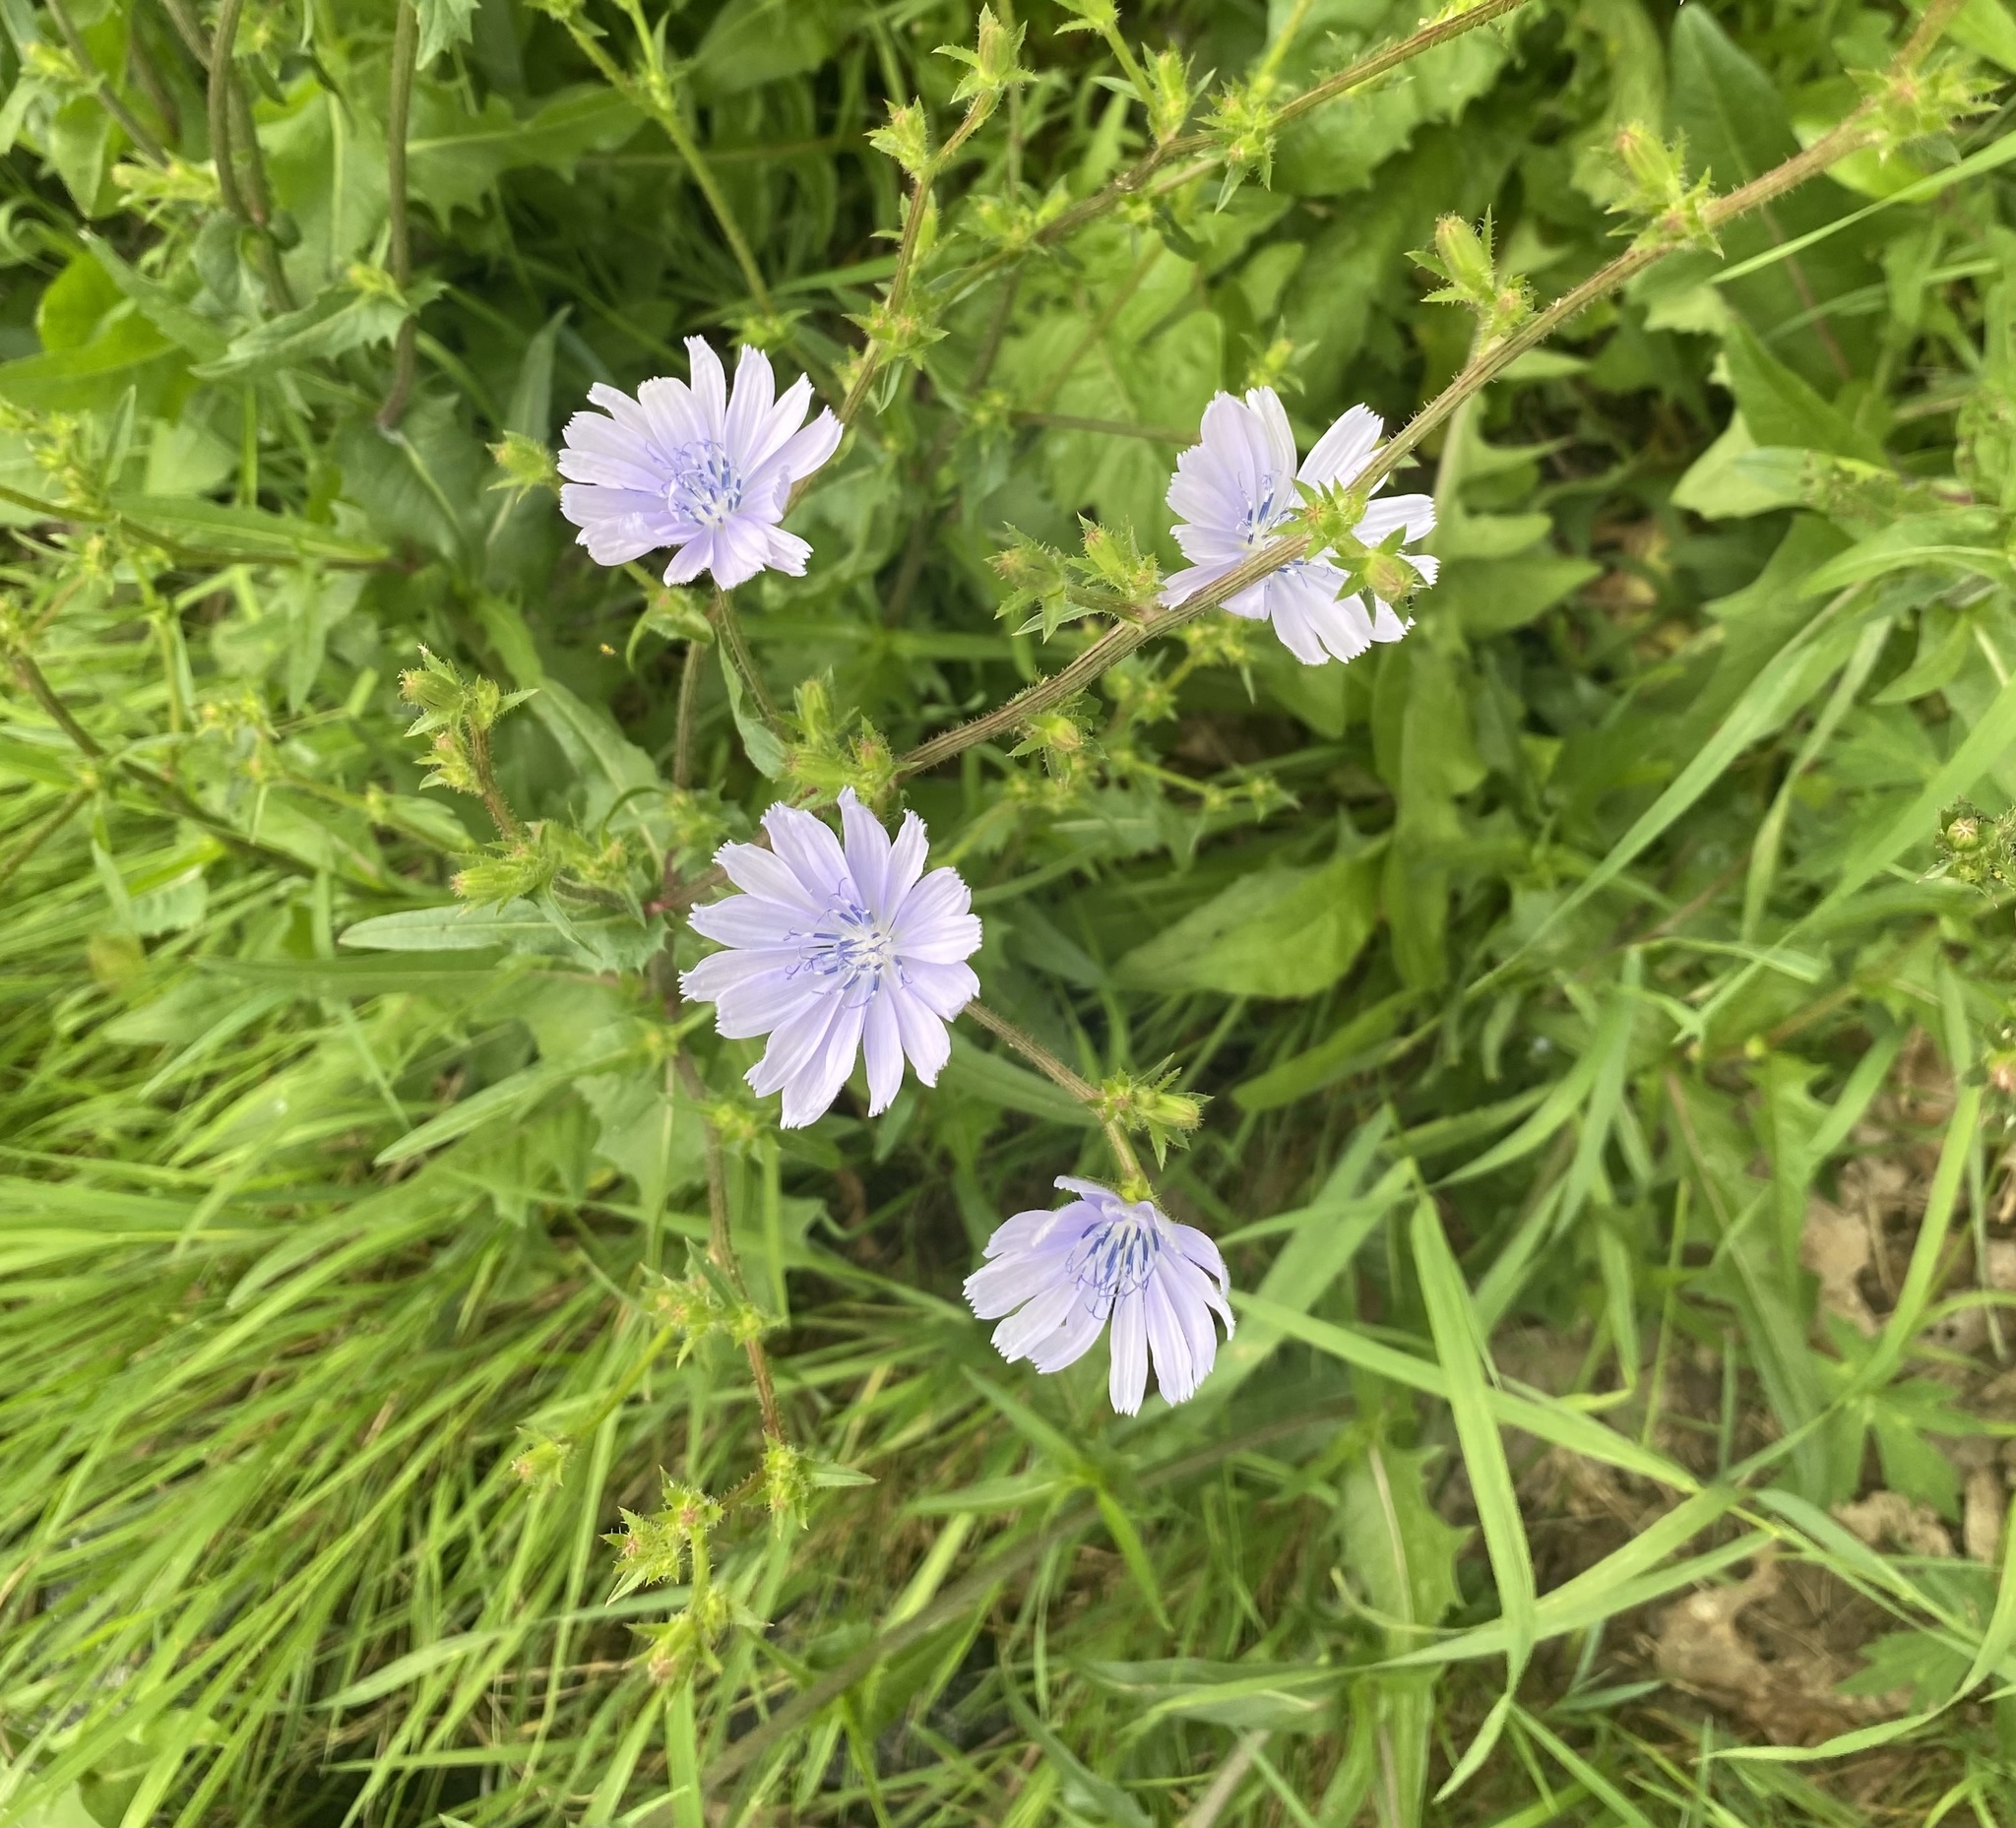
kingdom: Plantae
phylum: Tracheophyta
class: Magnoliopsida
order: Asterales
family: Asteraceae
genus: Cichorium
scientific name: Cichorium intybus
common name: Chicory
